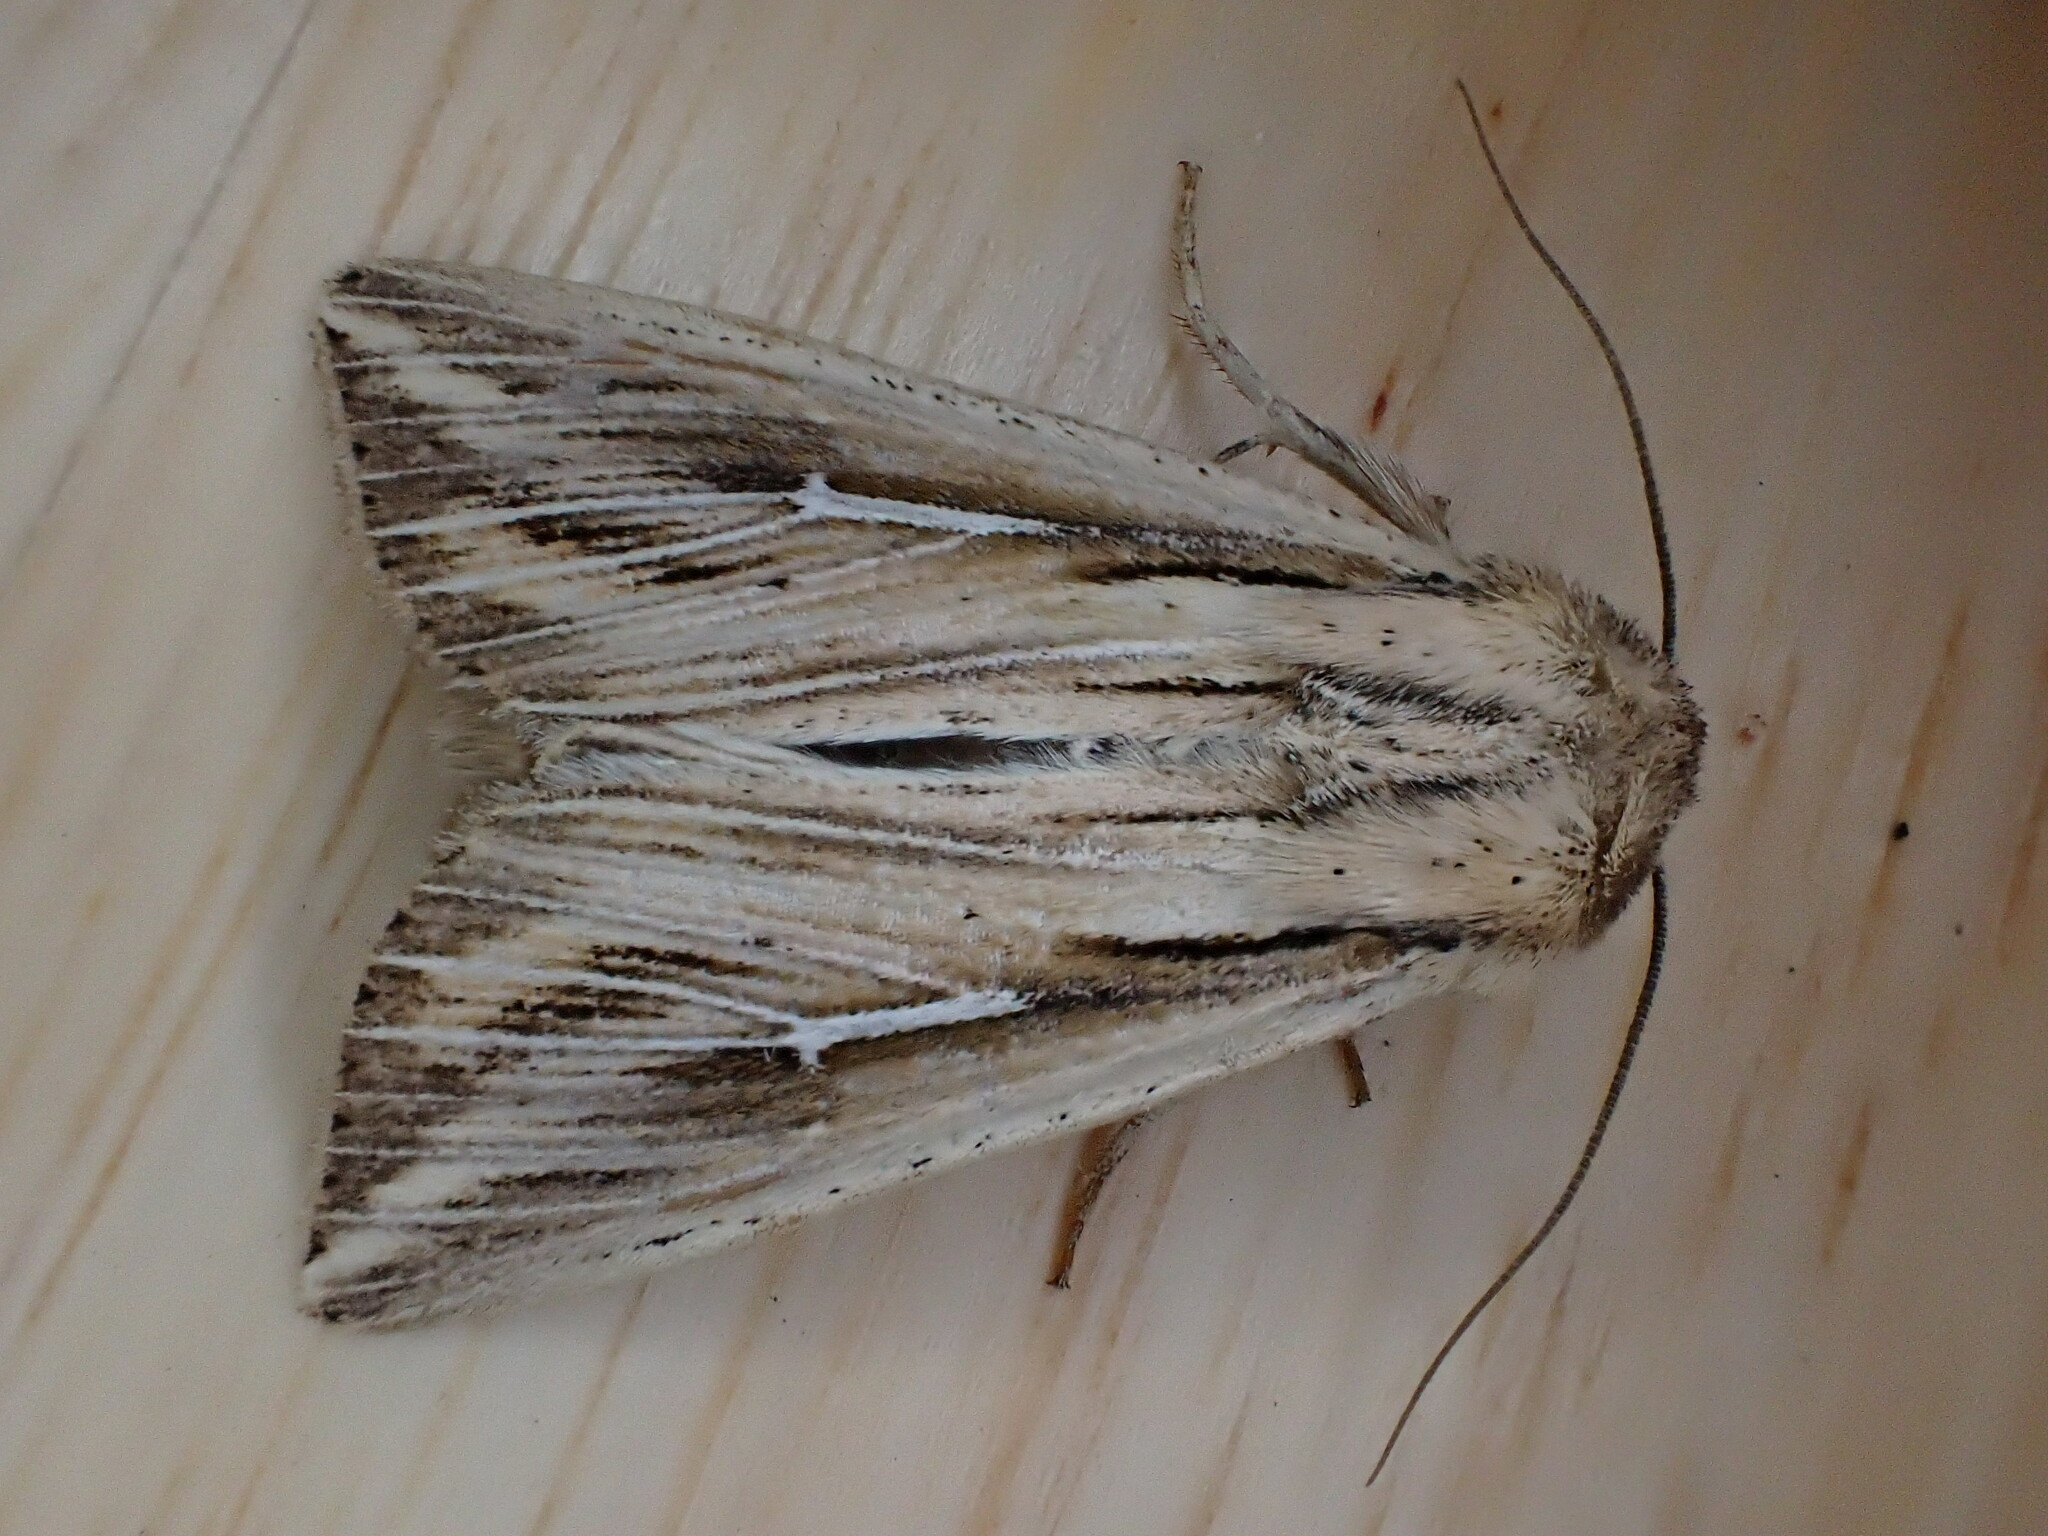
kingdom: Animalia
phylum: Arthropoda
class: Insecta
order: Lepidoptera
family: Noctuidae
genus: Mythimna
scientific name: Mythimna l-album
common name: L-album wainscot
